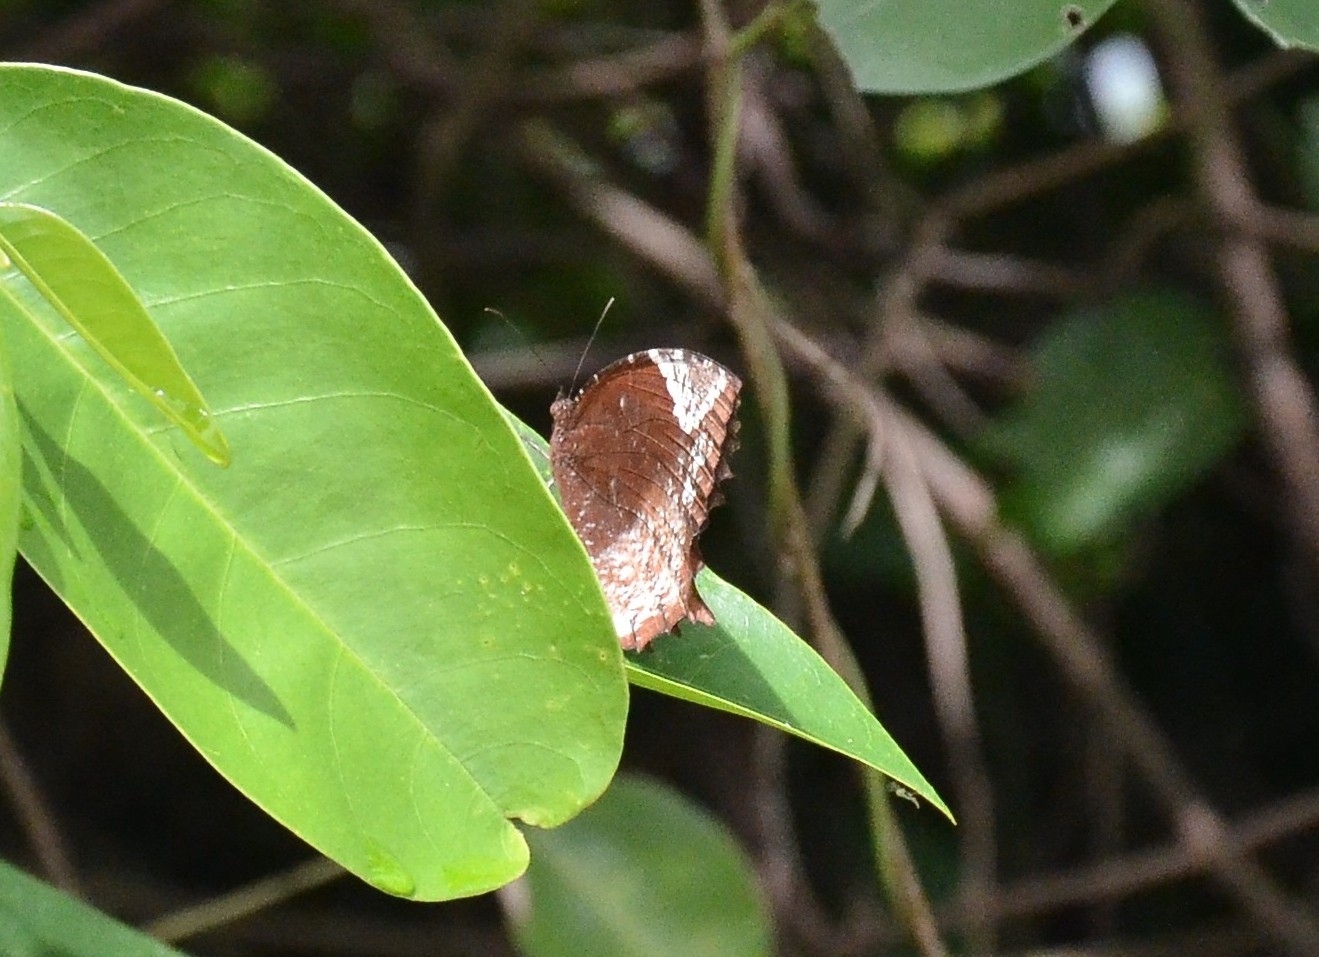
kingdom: Animalia
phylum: Arthropoda
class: Insecta
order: Lepidoptera
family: Nymphalidae
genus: Elymnias
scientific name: Elymnias caudata
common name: Tailed palmfly
